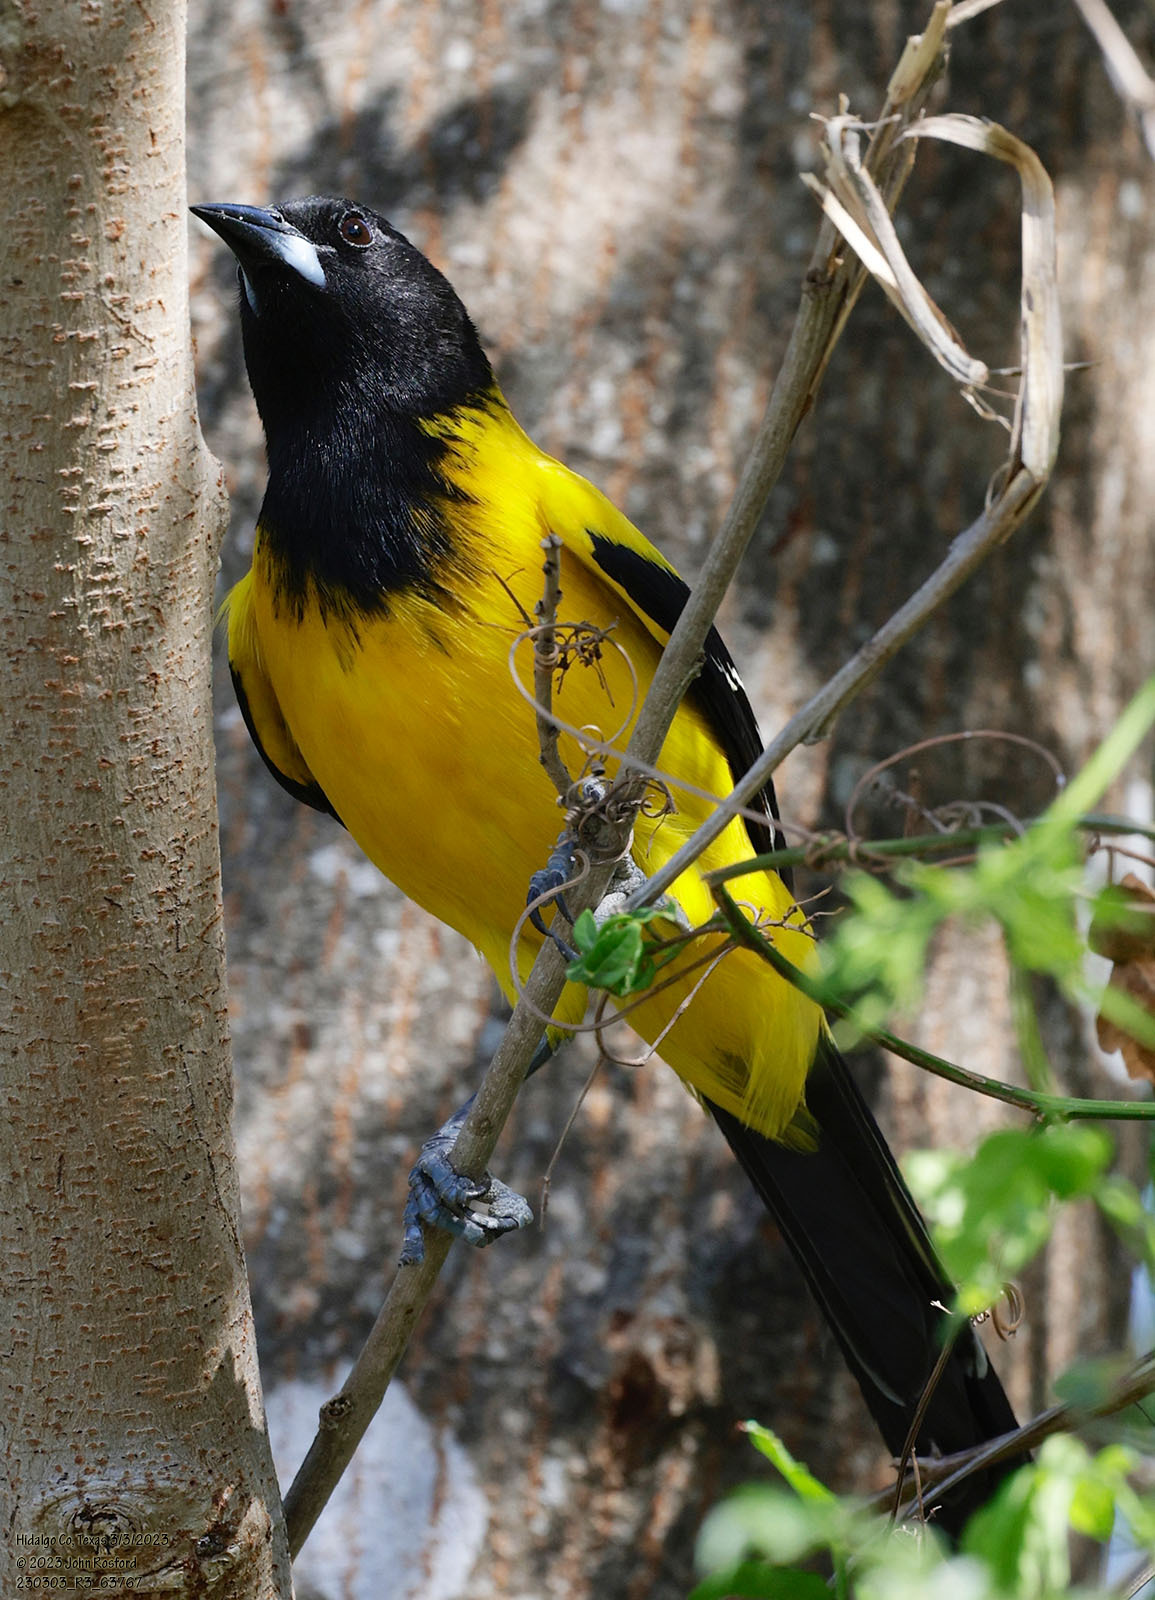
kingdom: Animalia
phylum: Chordata
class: Aves
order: Passeriformes
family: Icteridae
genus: Icterus
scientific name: Icterus graduacauda
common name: Audubon's oriole
